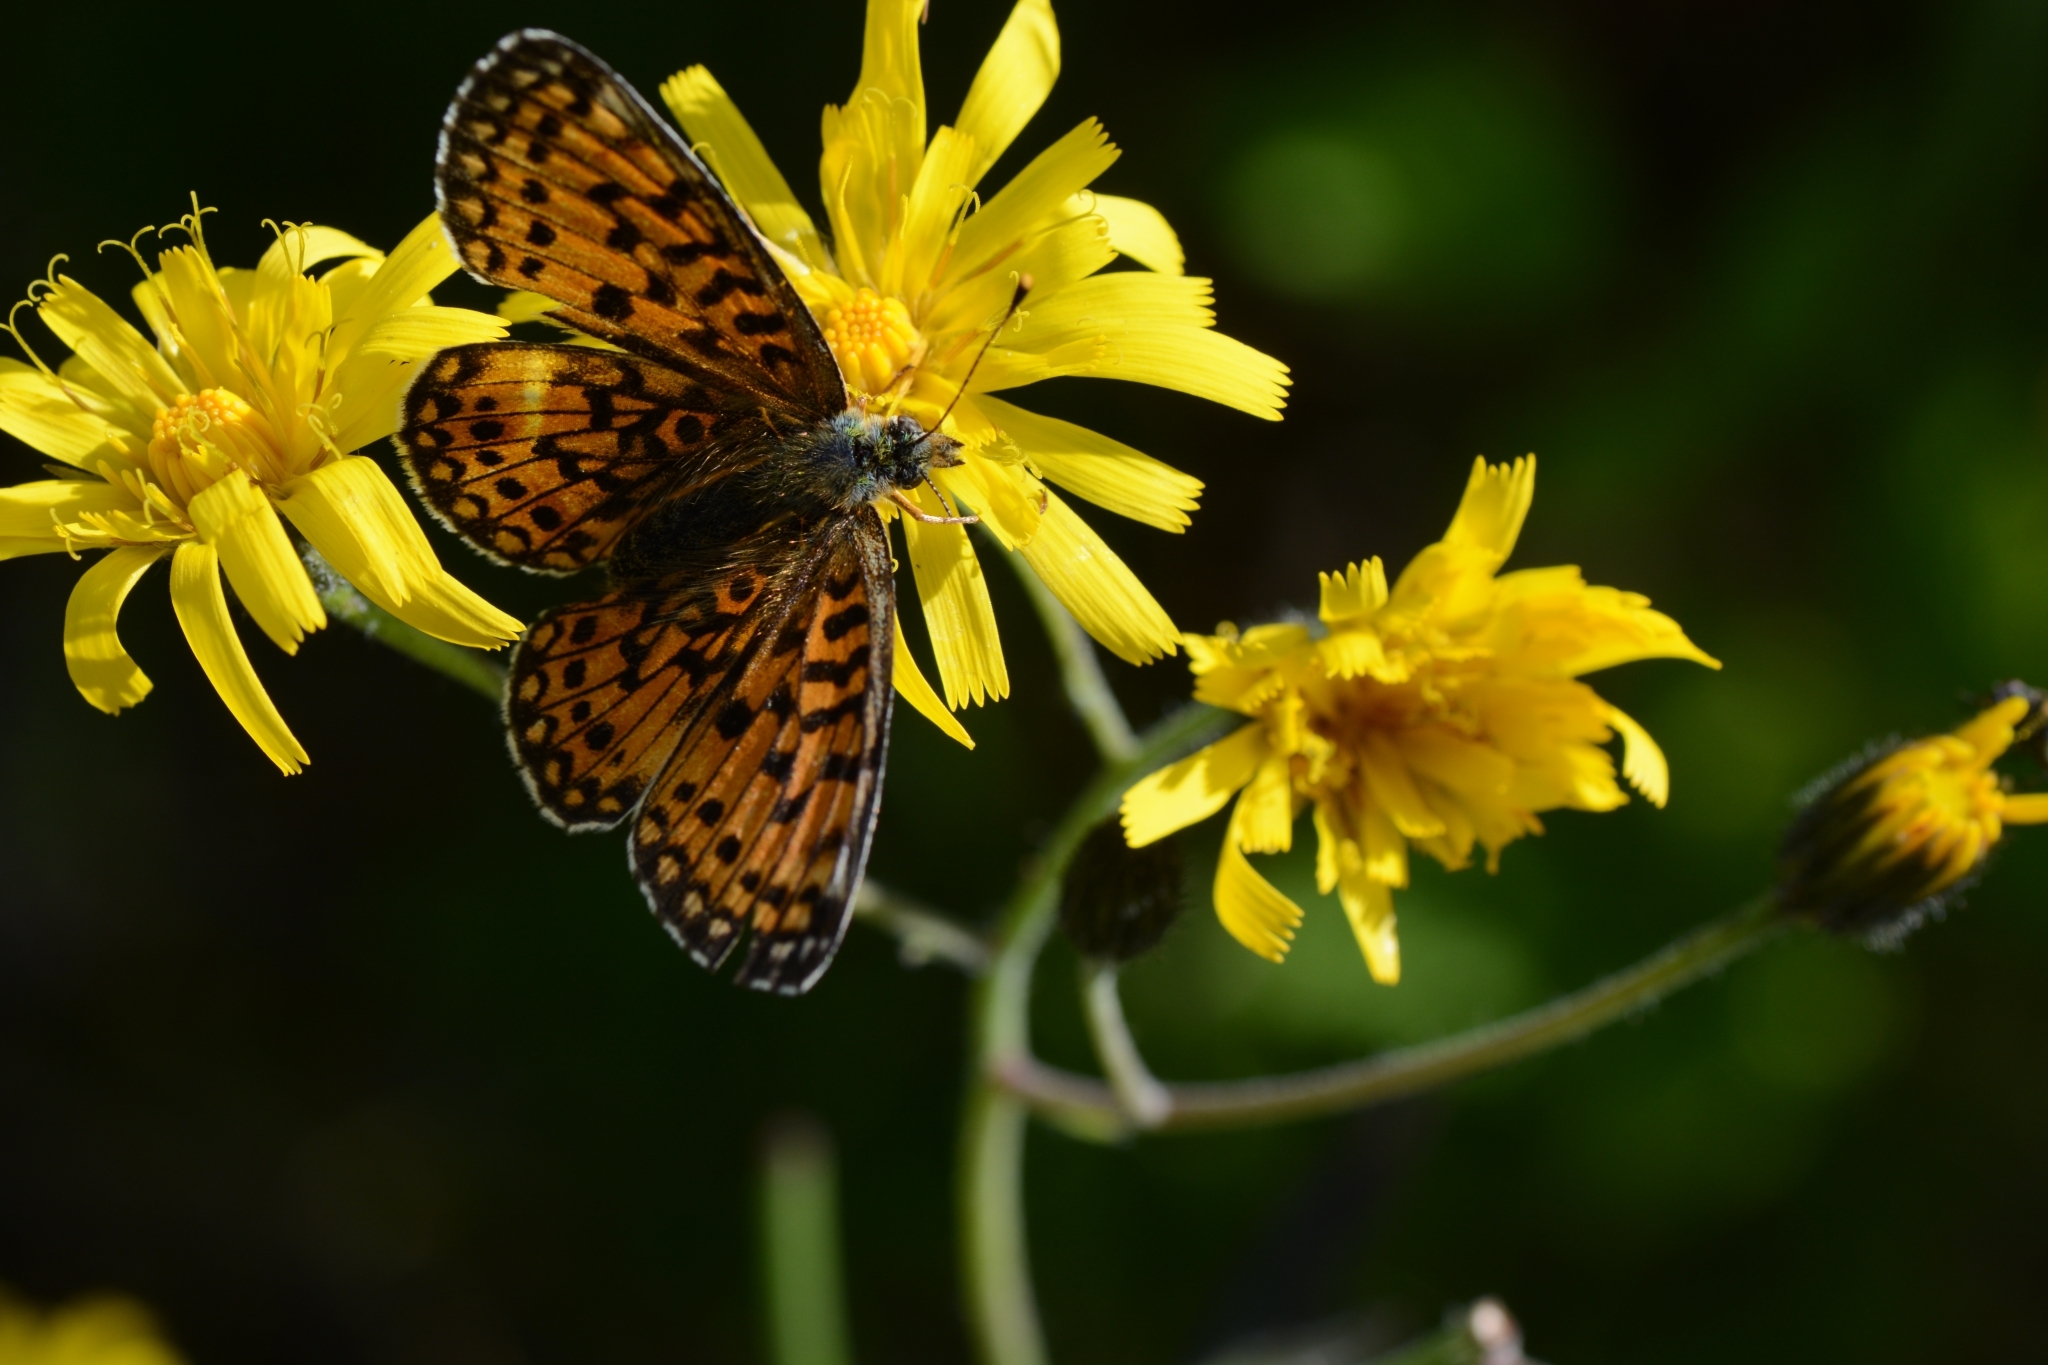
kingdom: Animalia
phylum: Arthropoda
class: Insecta
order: Lepidoptera
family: Nymphalidae
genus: Boloria
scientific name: Boloria selene
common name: Small pearl-bordered fritillary
